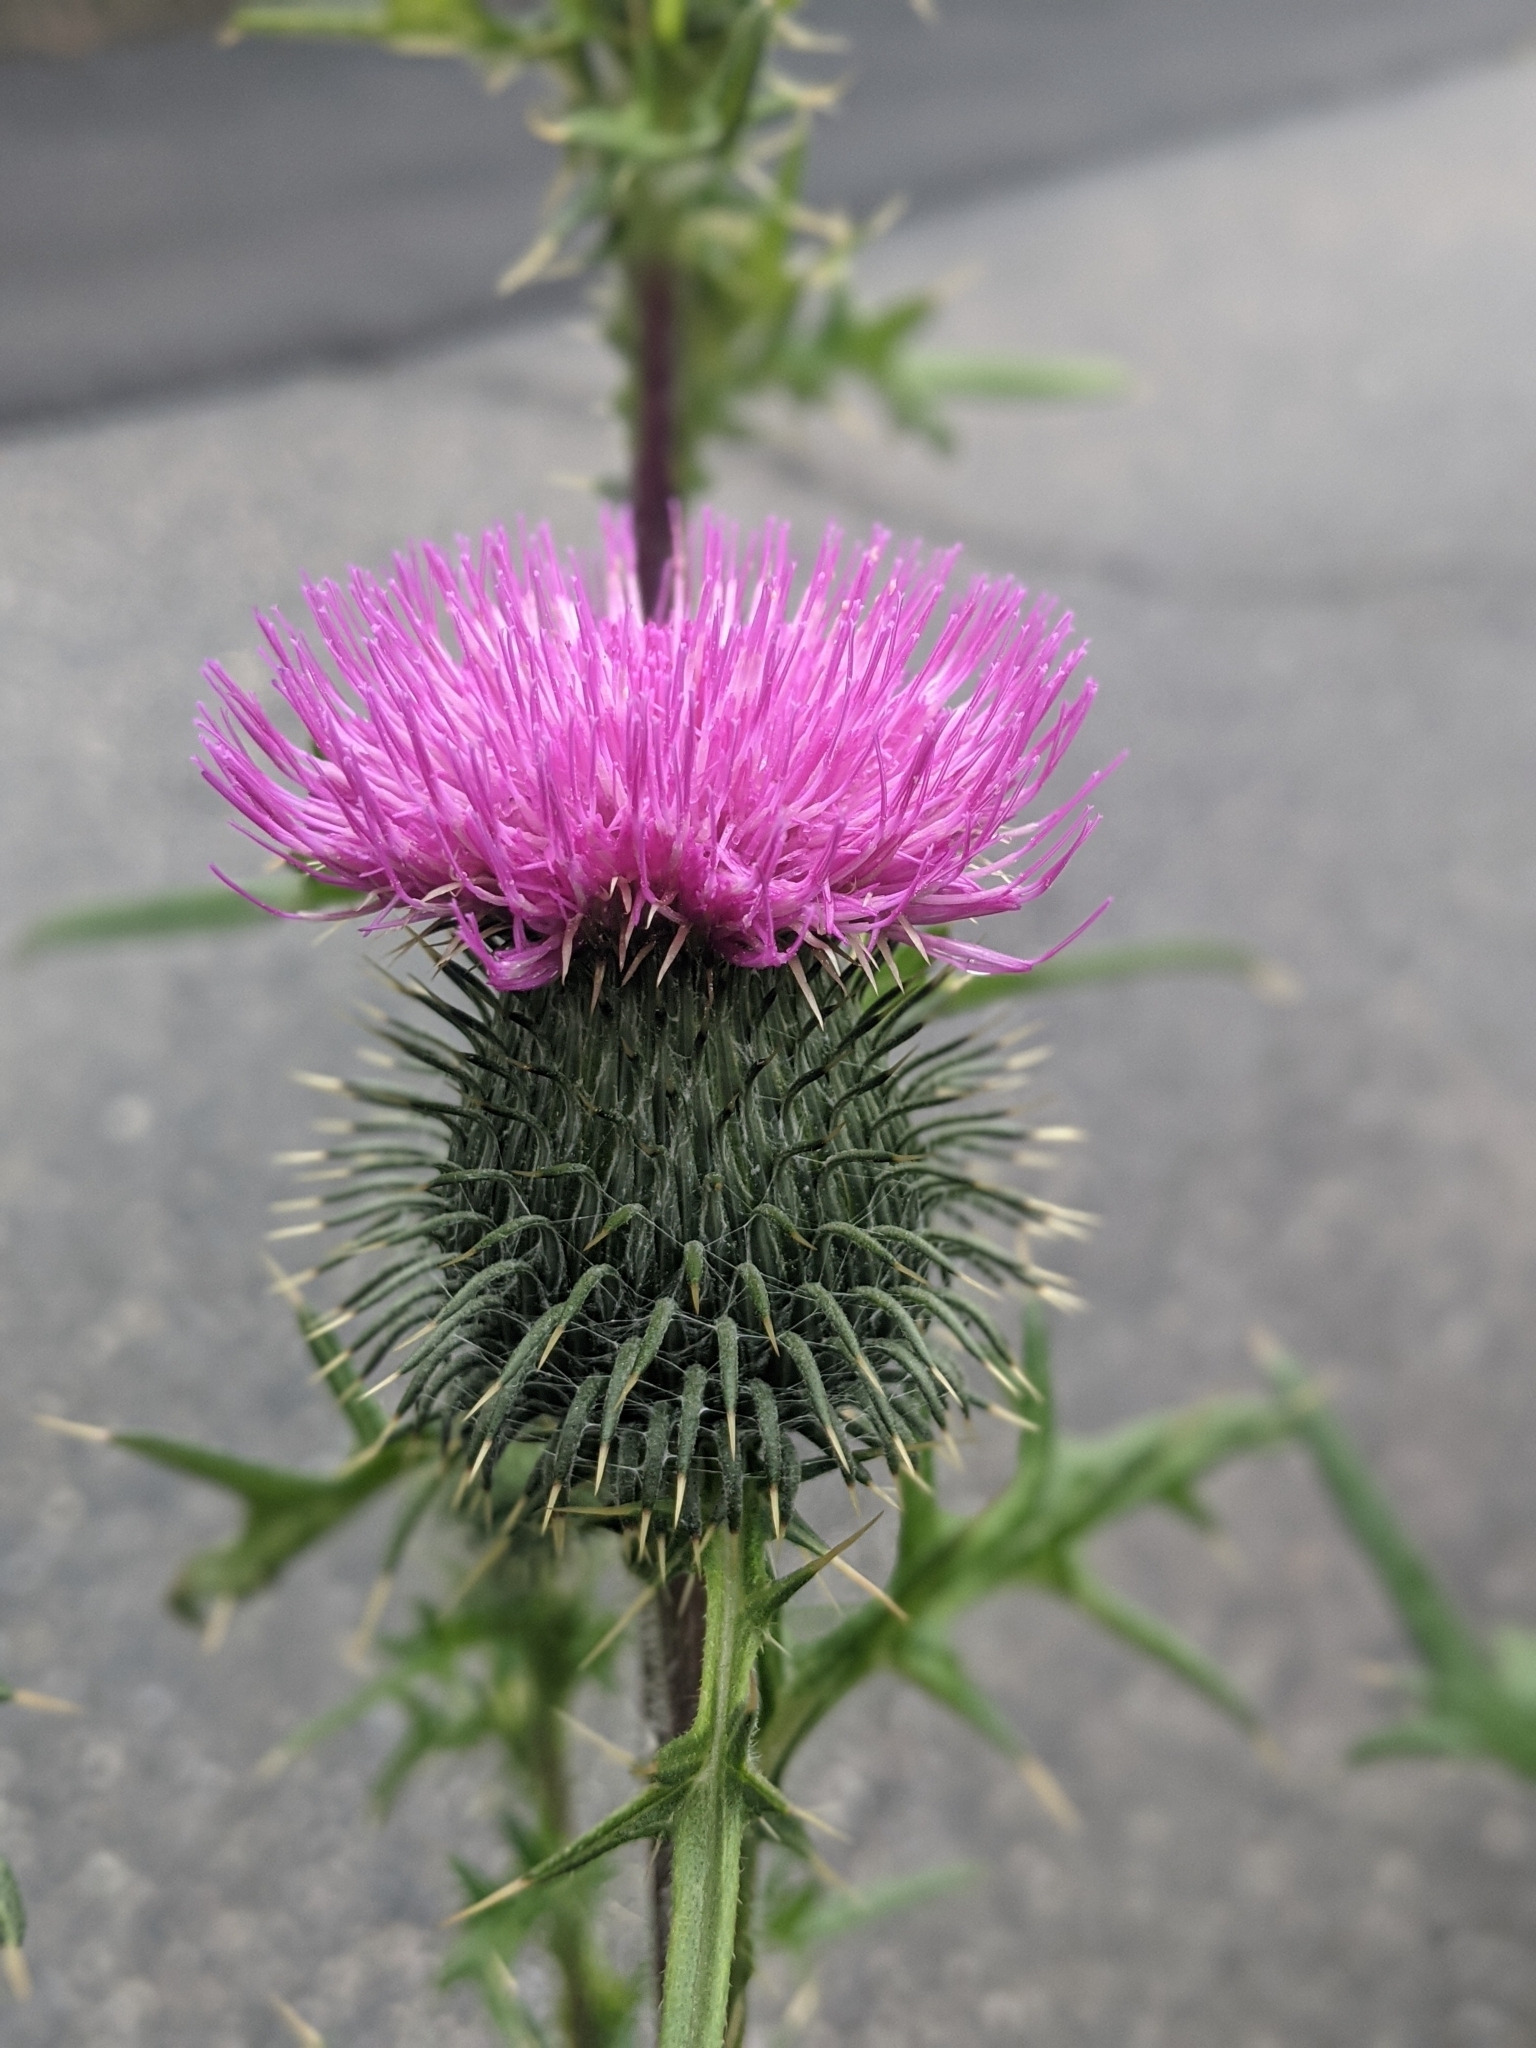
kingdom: Plantae
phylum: Tracheophyta
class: Magnoliopsida
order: Asterales
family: Asteraceae
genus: Cirsium
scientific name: Cirsium vulgare
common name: Bull thistle
